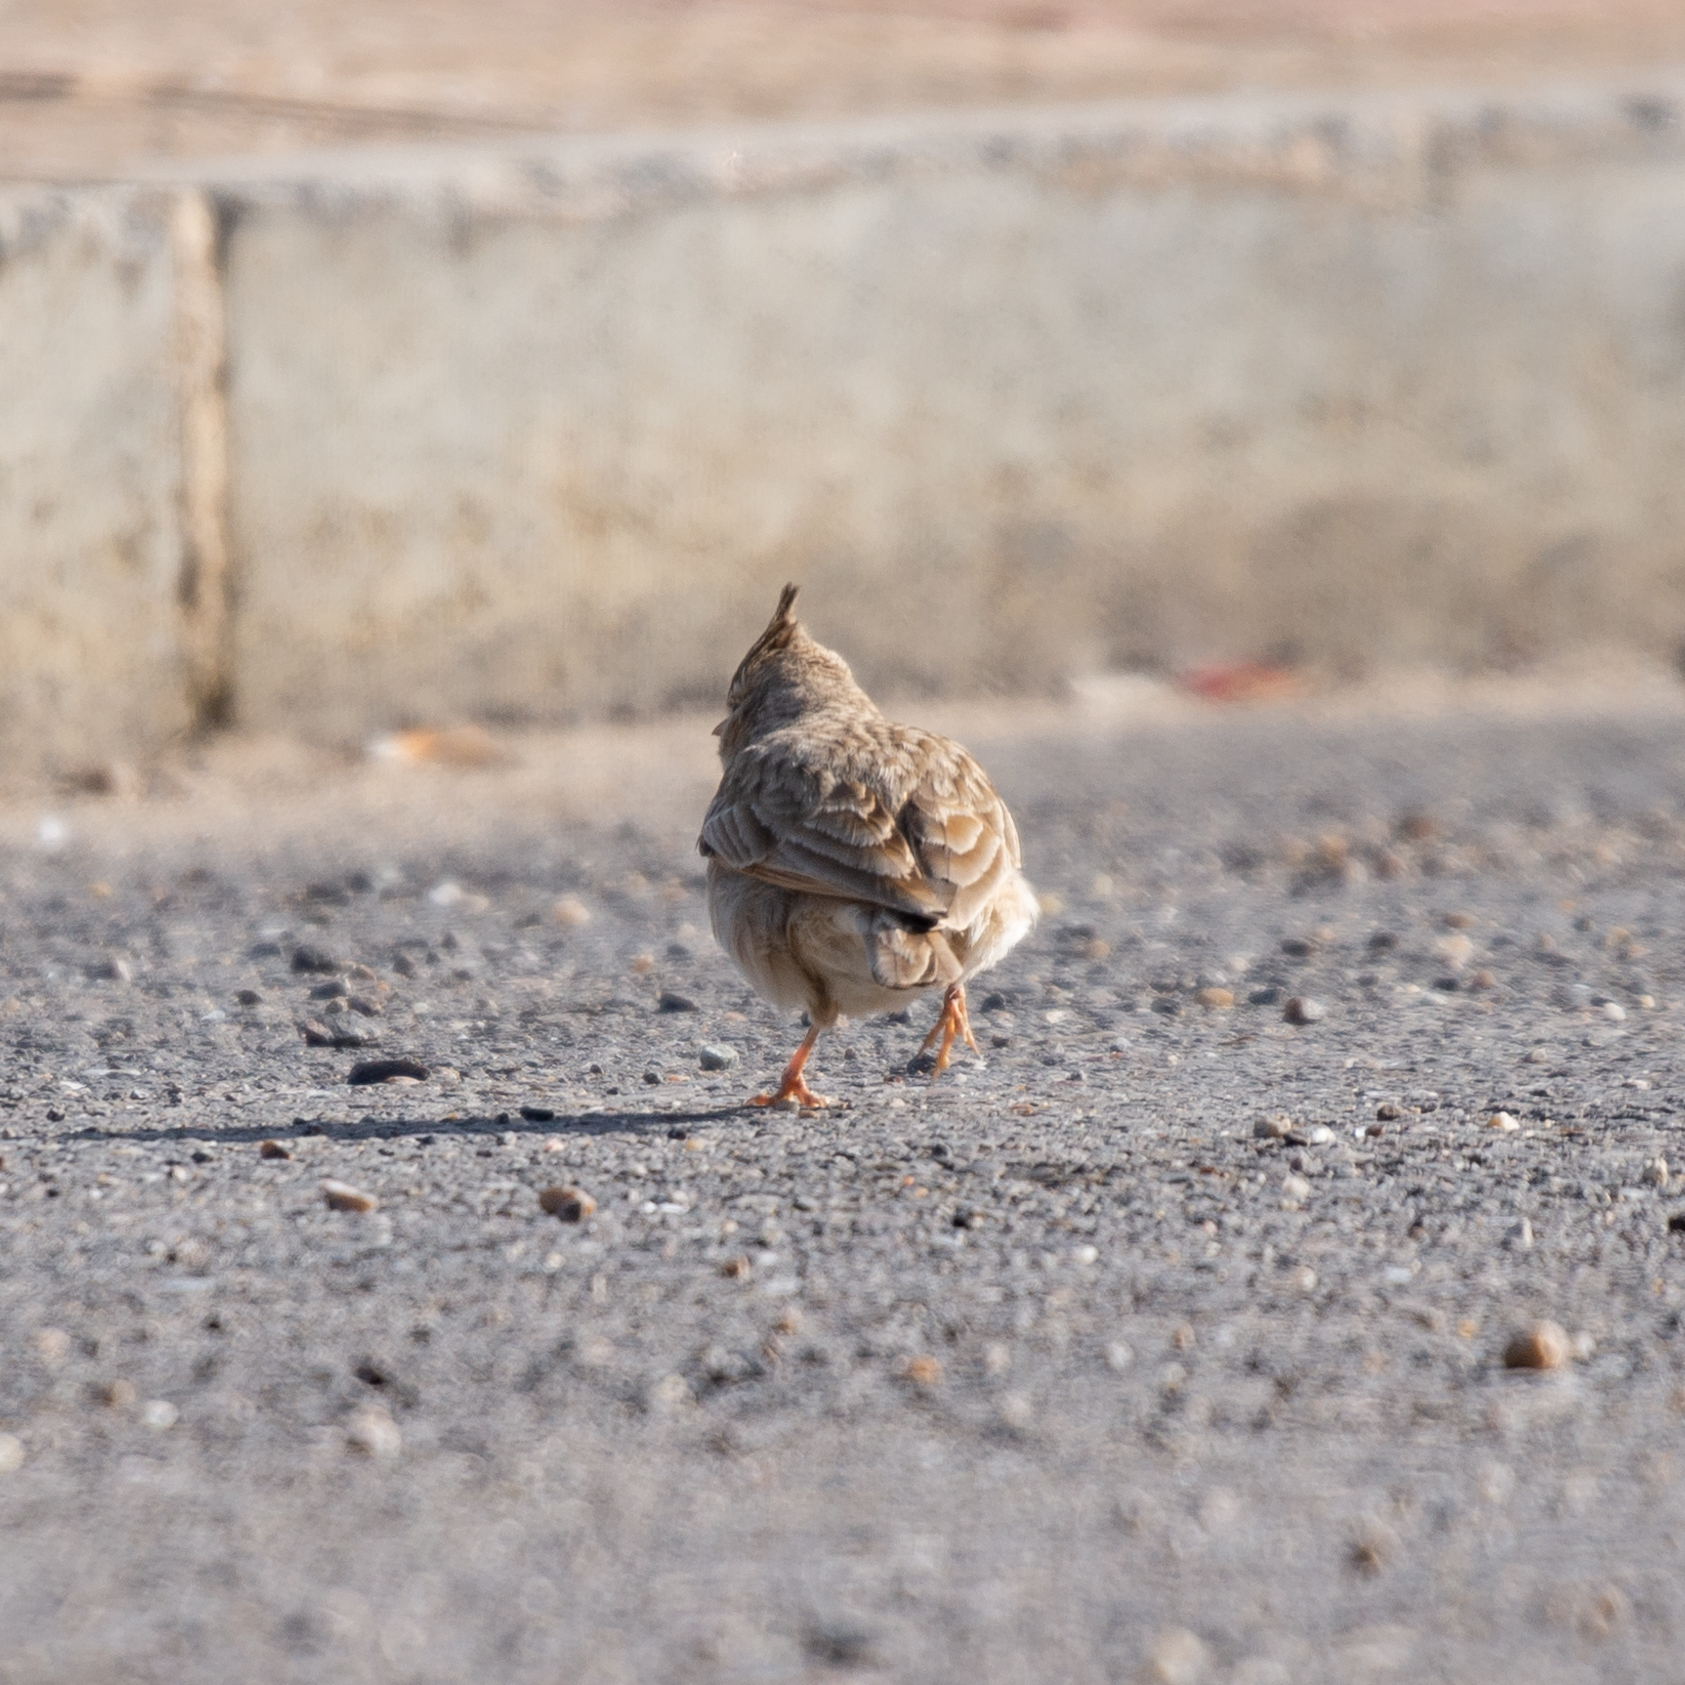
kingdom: Animalia
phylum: Chordata
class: Aves
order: Passeriformes
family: Alaudidae
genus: Galerida
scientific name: Galerida cristata
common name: Crested lark
